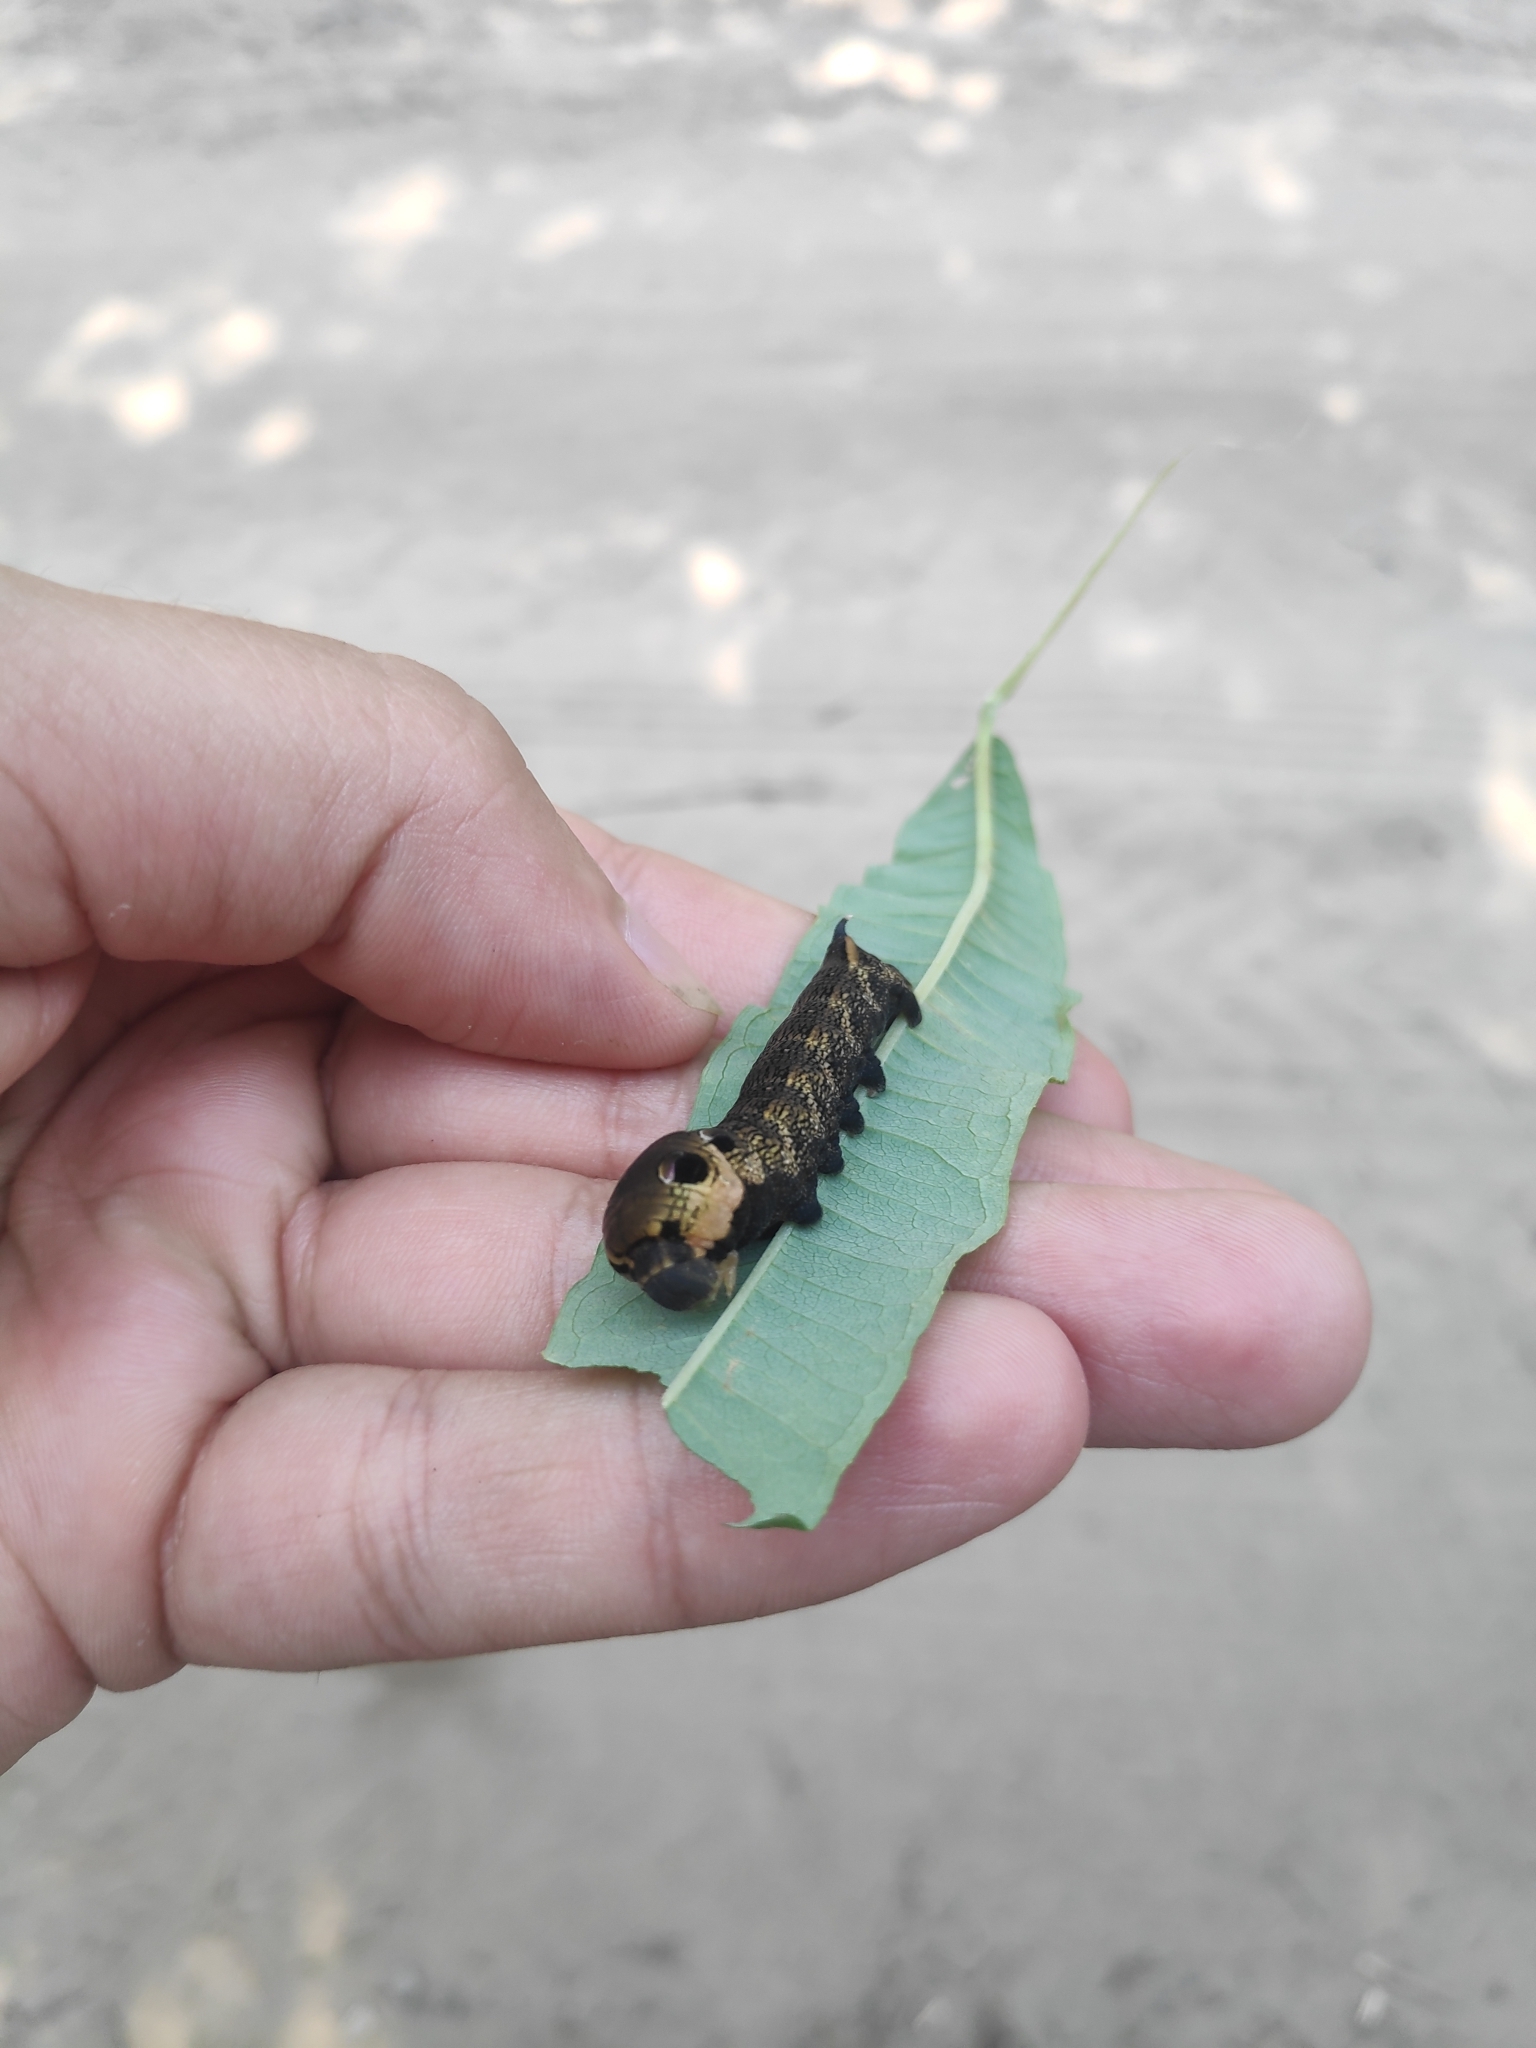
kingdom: Animalia
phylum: Arthropoda
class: Insecta
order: Lepidoptera
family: Sphingidae
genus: Deilephila
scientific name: Deilephila elpenor
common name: Elephant hawk-moth
